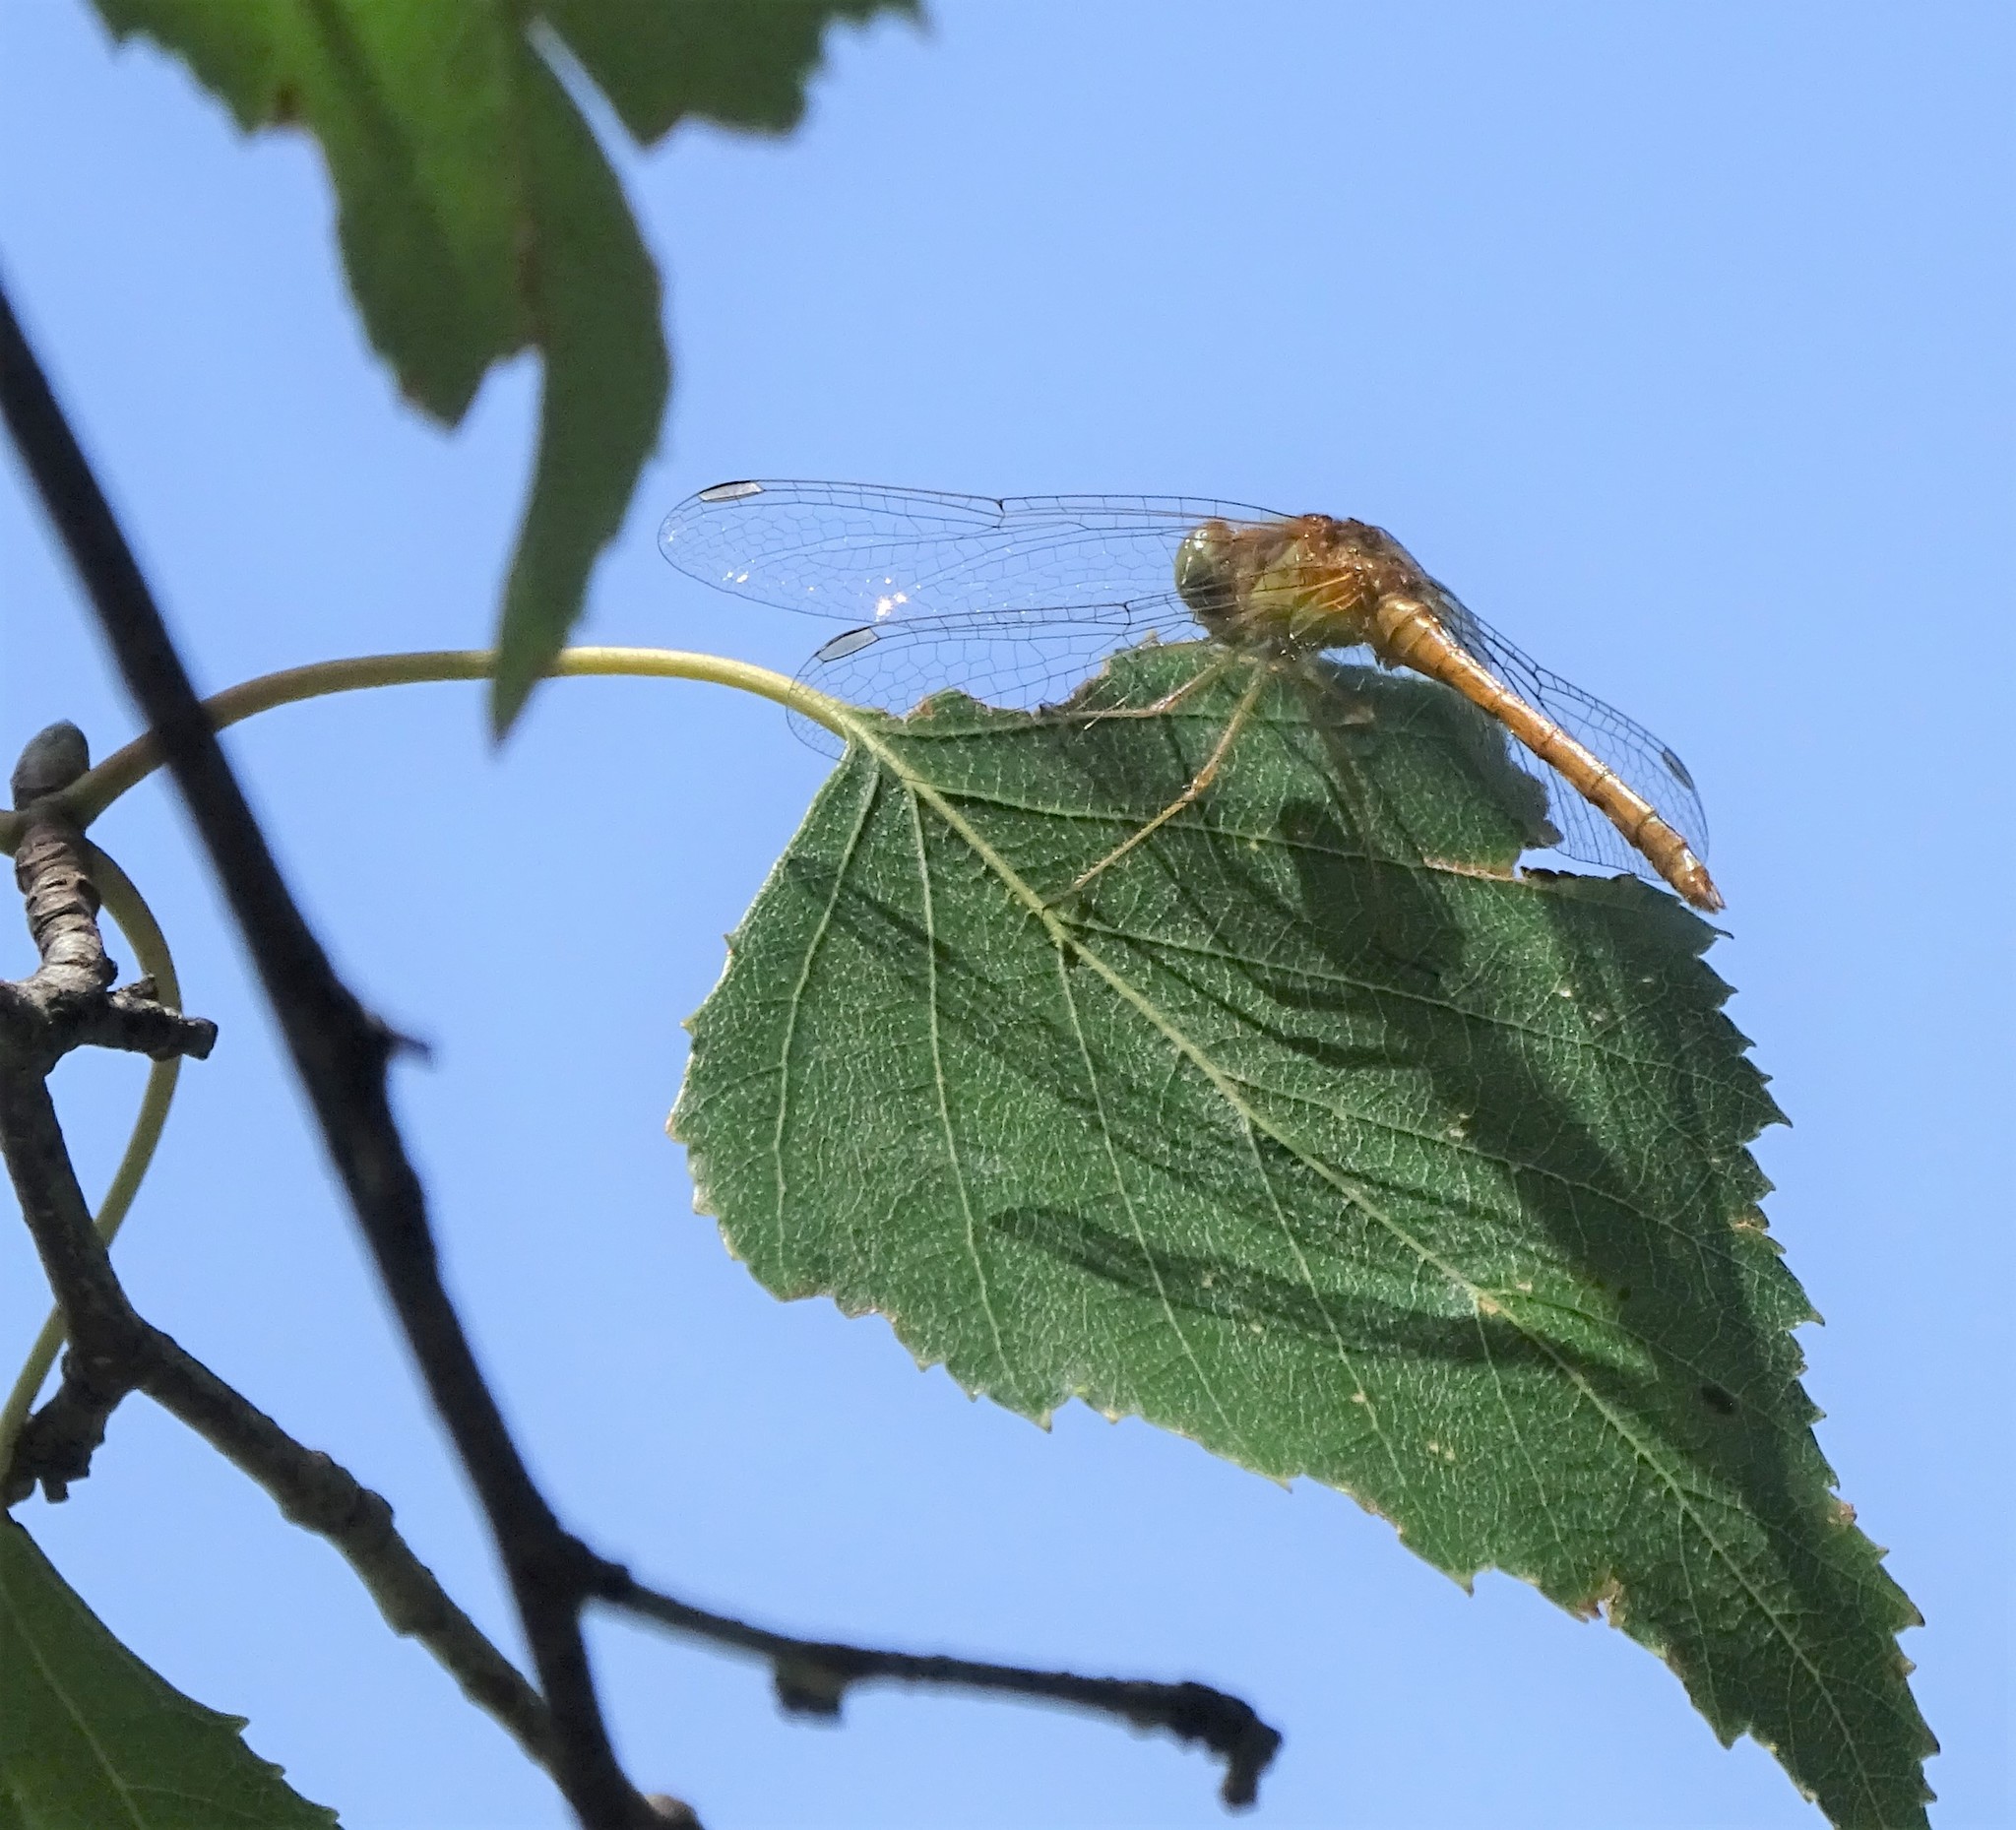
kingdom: Animalia
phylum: Arthropoda
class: Insecta
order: Odonata
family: Libellulidae
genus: Sympetrum
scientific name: Sympetrum vicinum
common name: Autumn meadowhawk
